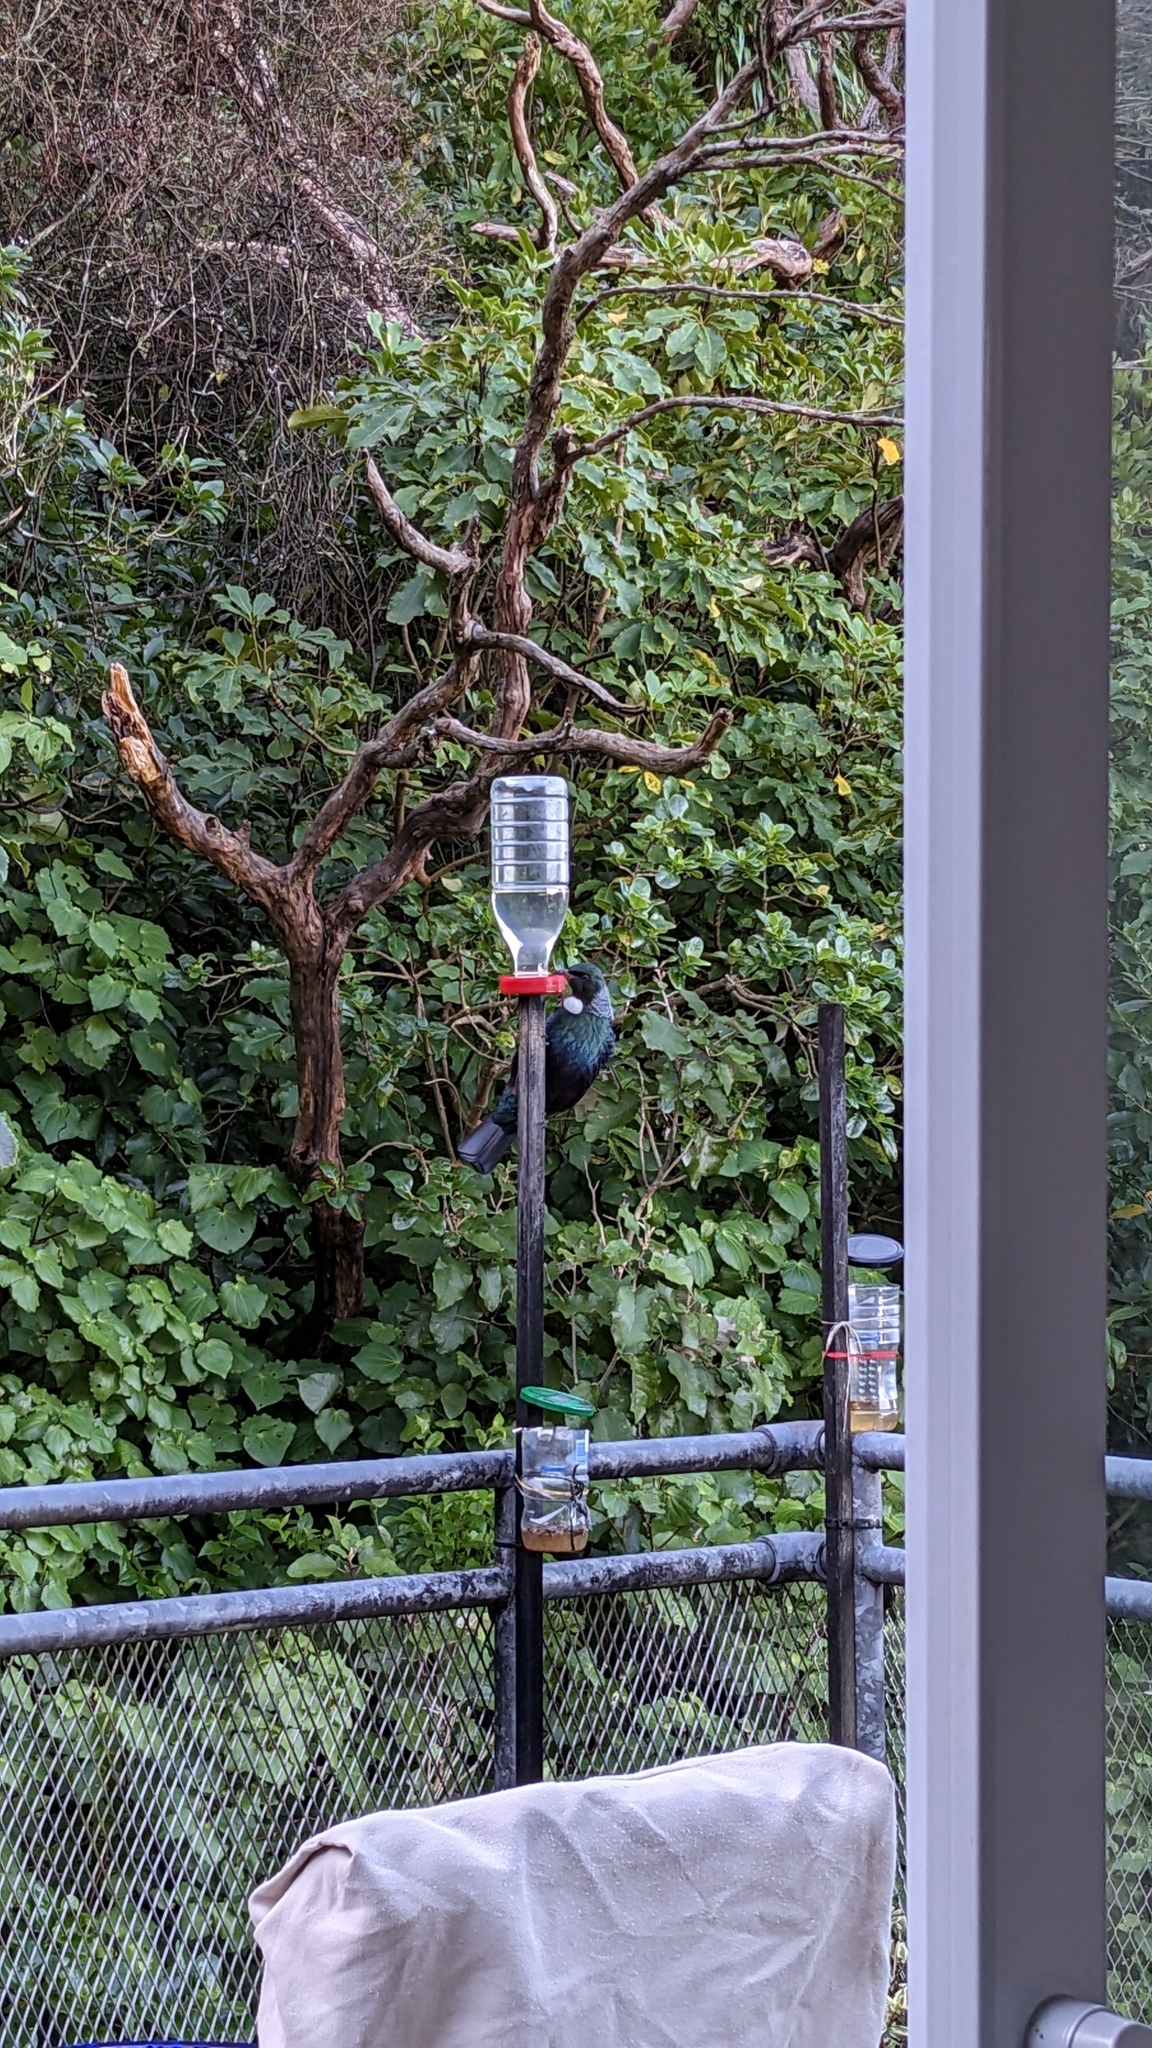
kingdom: Animalia
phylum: Chordata
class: Aves
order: Passeriformes
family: Meliphagidae
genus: Prosthemadera
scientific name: Prosthemadera novaeseelandiae
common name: Tui
